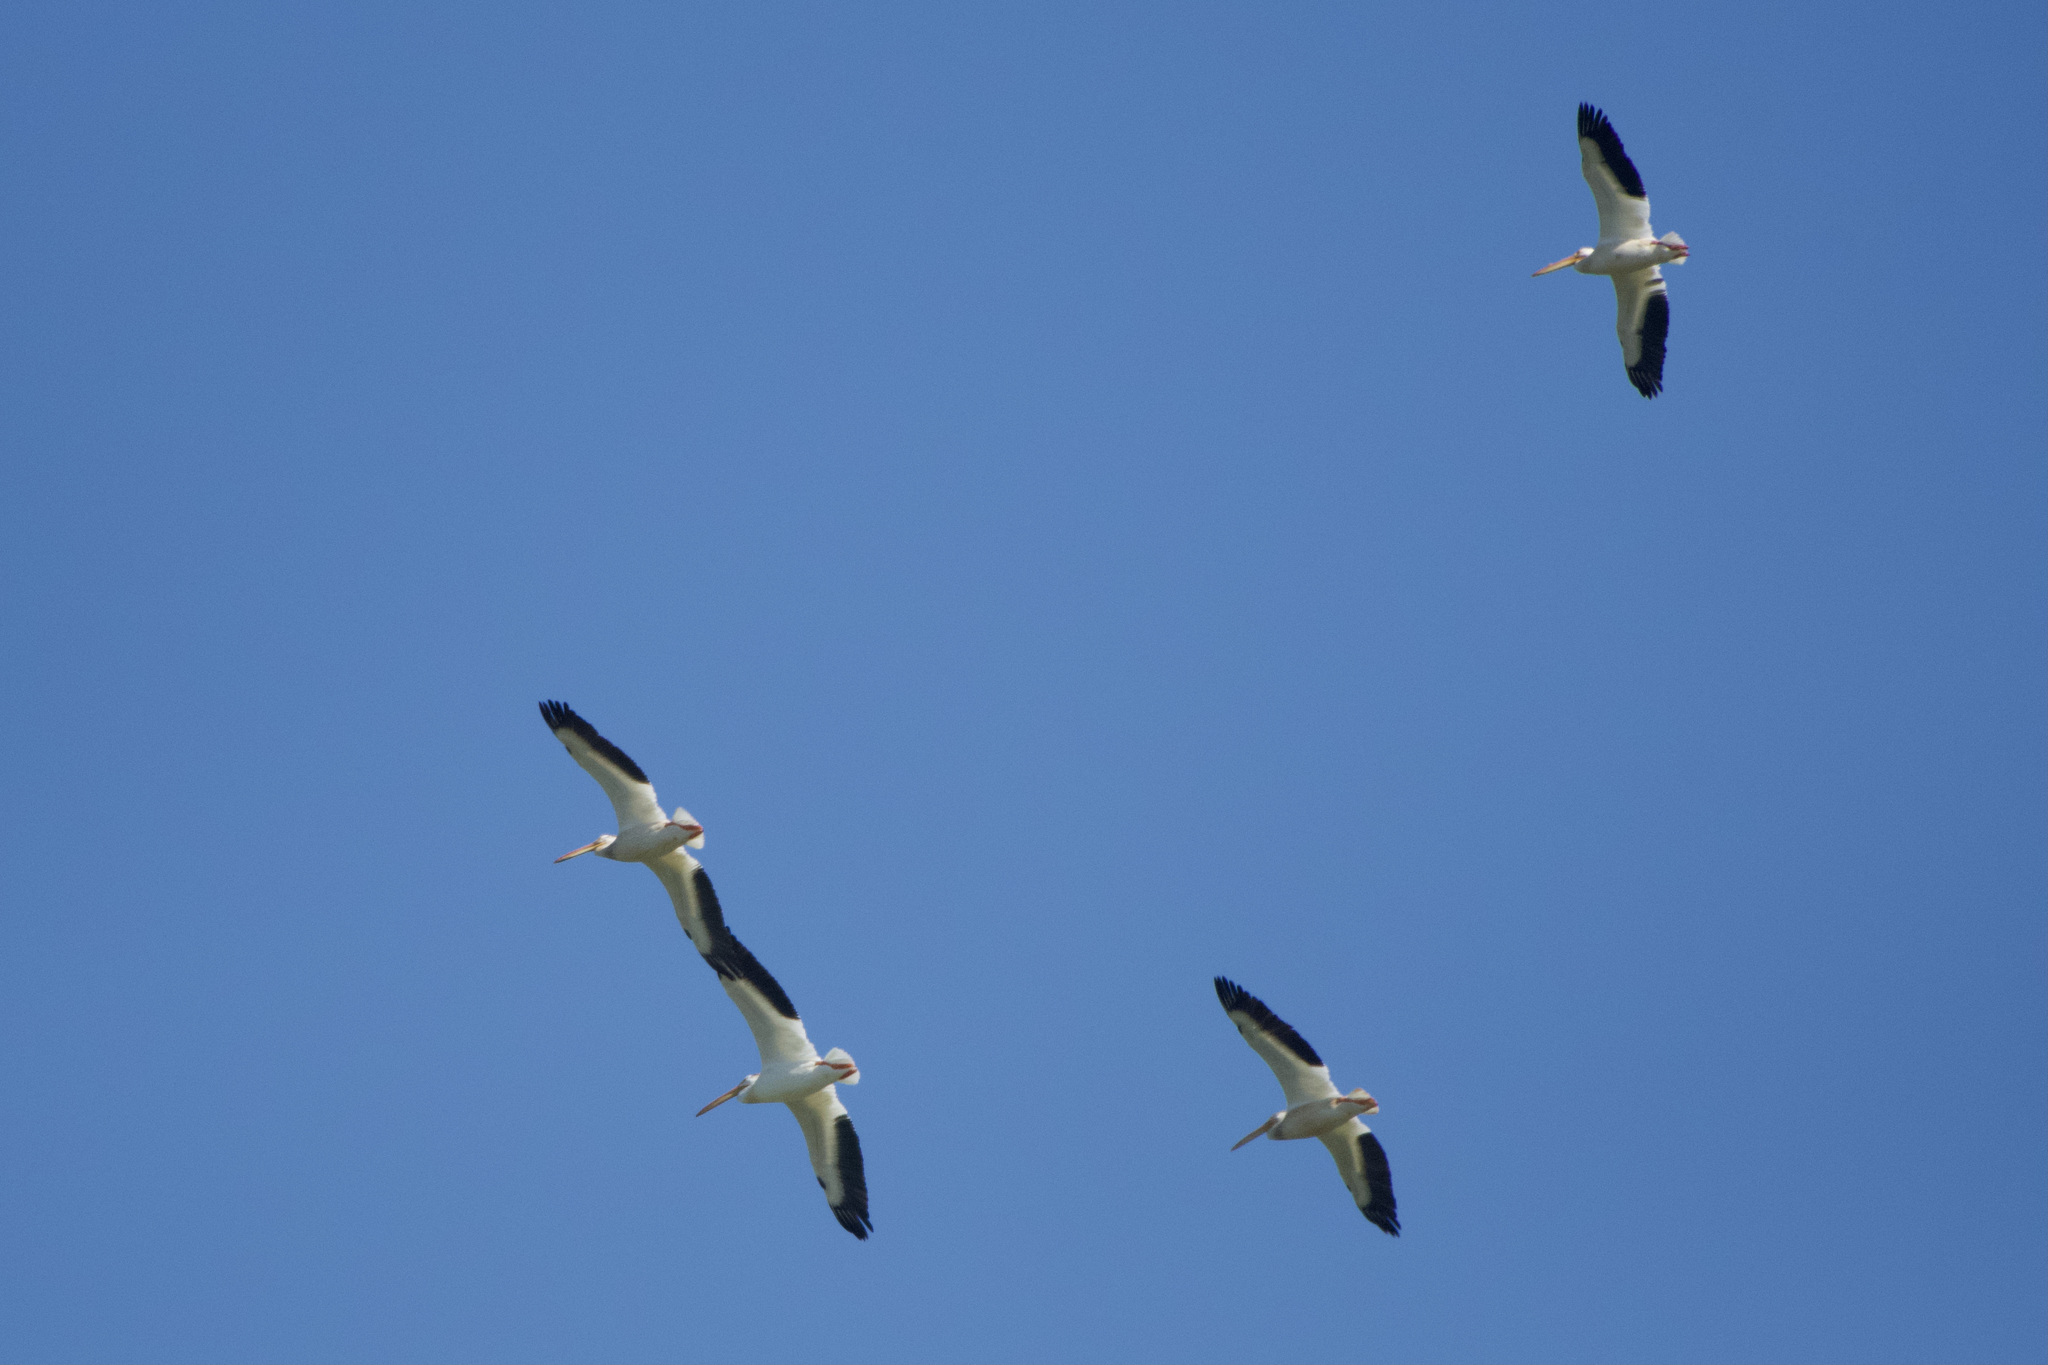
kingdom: Animalia
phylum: Chordata
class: Aves
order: Pelecaniformes
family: Pelecanidae
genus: Pelecanus
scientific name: Pelecanus erythrorhynchos
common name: American white pelican
